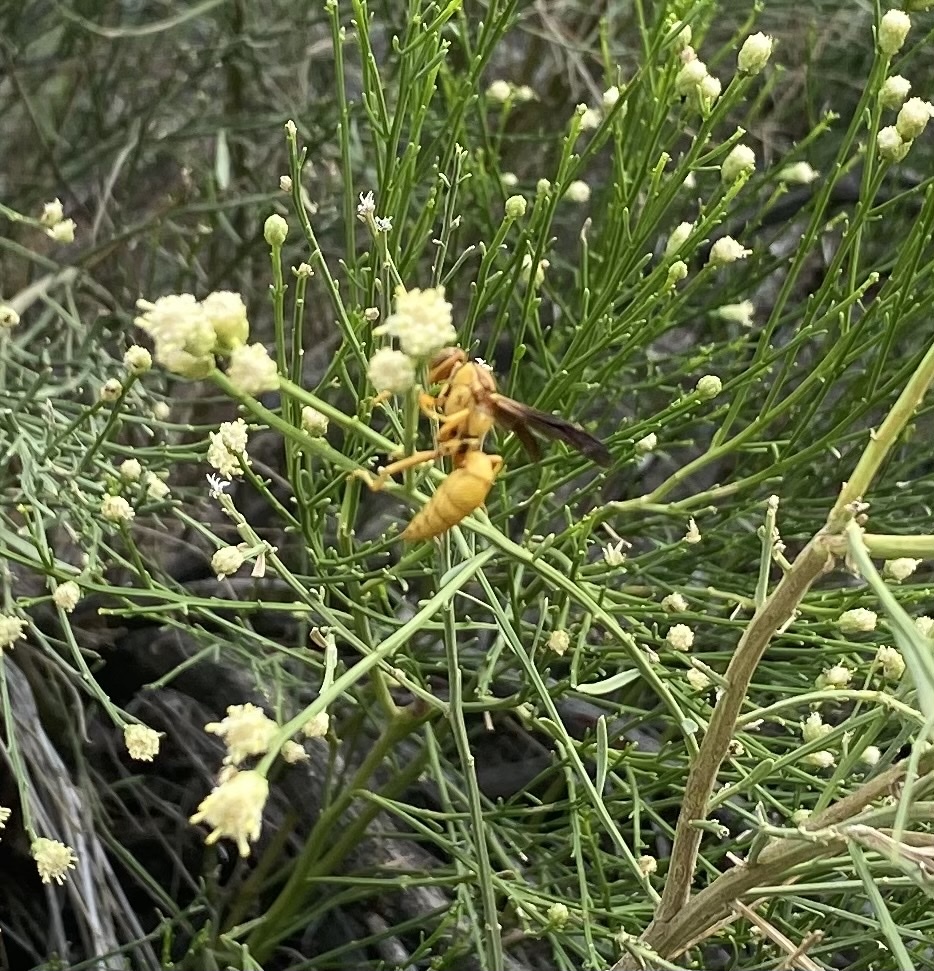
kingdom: Animalia
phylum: Arthropoda
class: Insecta
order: Hymenoptera
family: Eumenidae
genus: Polistes
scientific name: Polistes flavus
